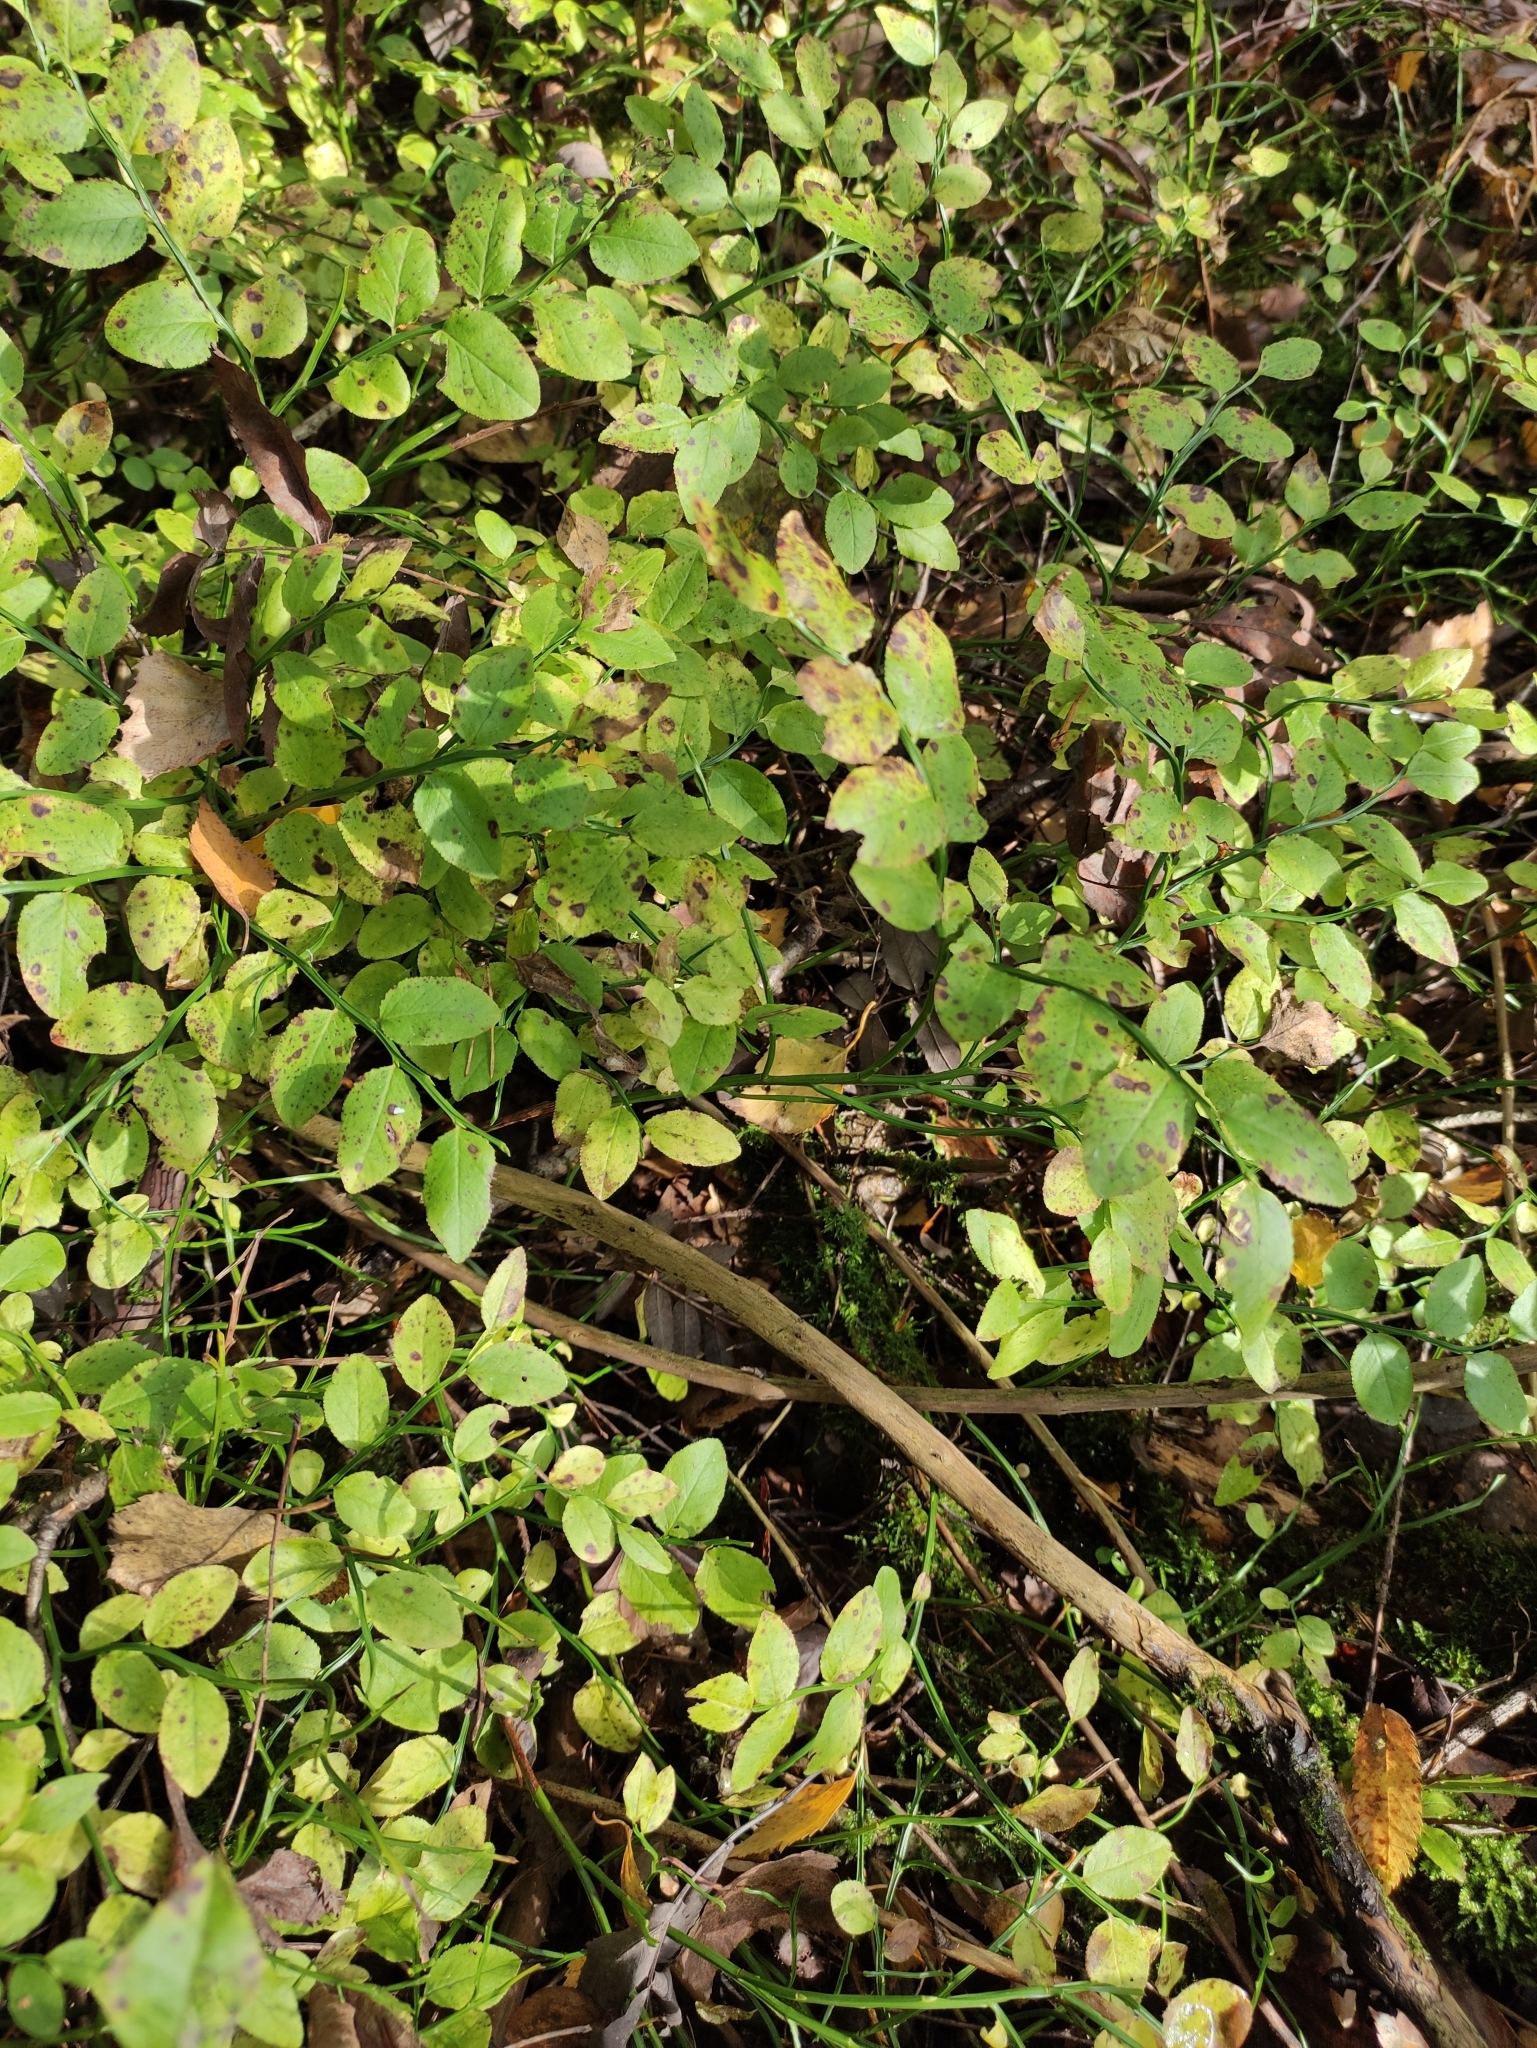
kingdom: Plantae
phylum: Tracheophyta
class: Magnoliopsida
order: Ericales
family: Ericaceae
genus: Vaccinium
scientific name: Vaccinium myrtillus
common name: Bilberry
